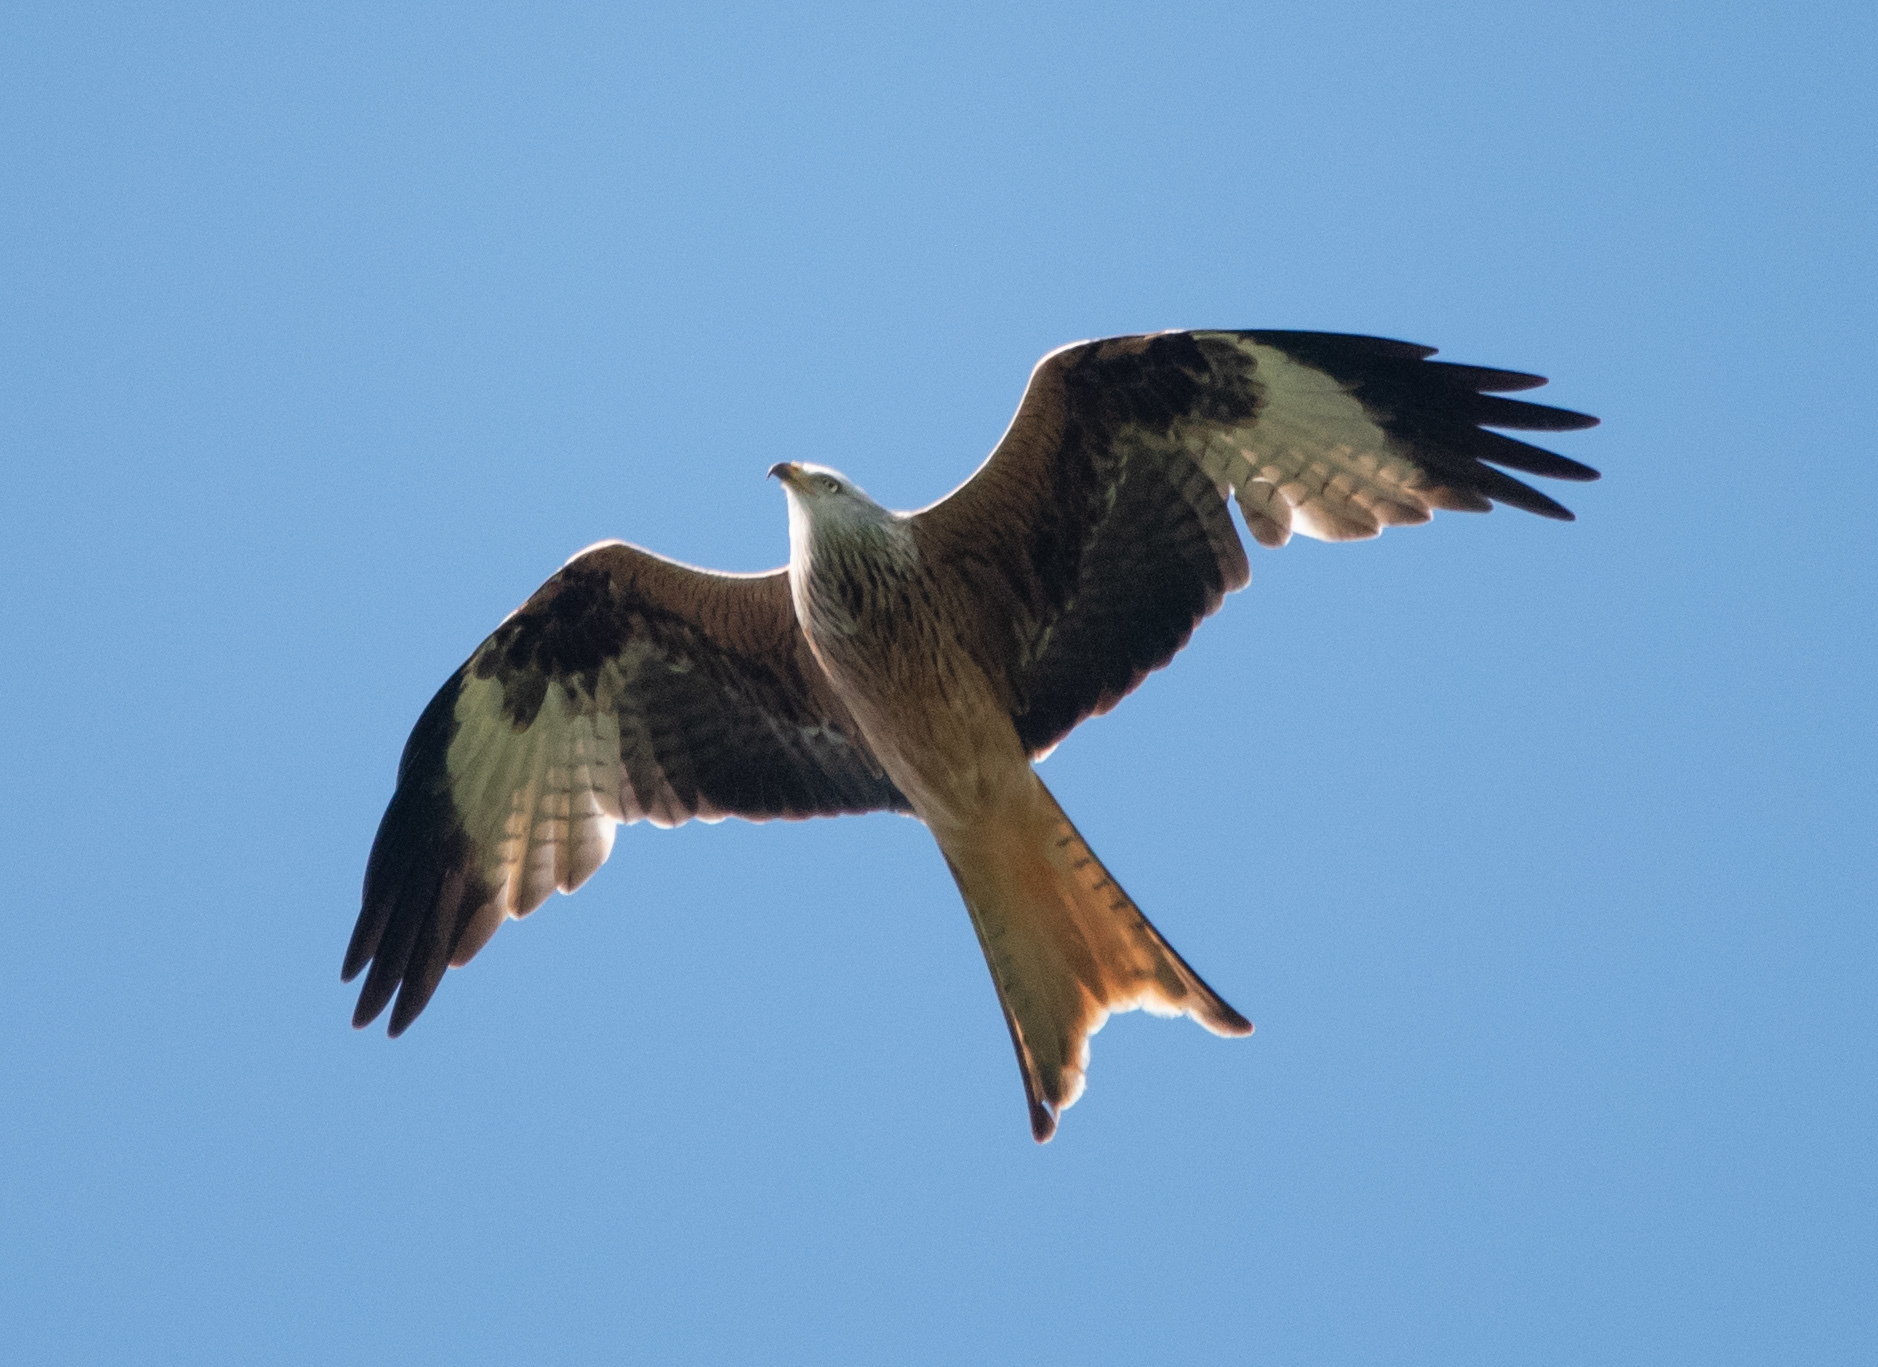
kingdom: Animalia
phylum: Chordata
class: Aves
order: Accipitriformes
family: Accipitridae
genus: Milvus
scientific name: Milvus milvus
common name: Red kite
